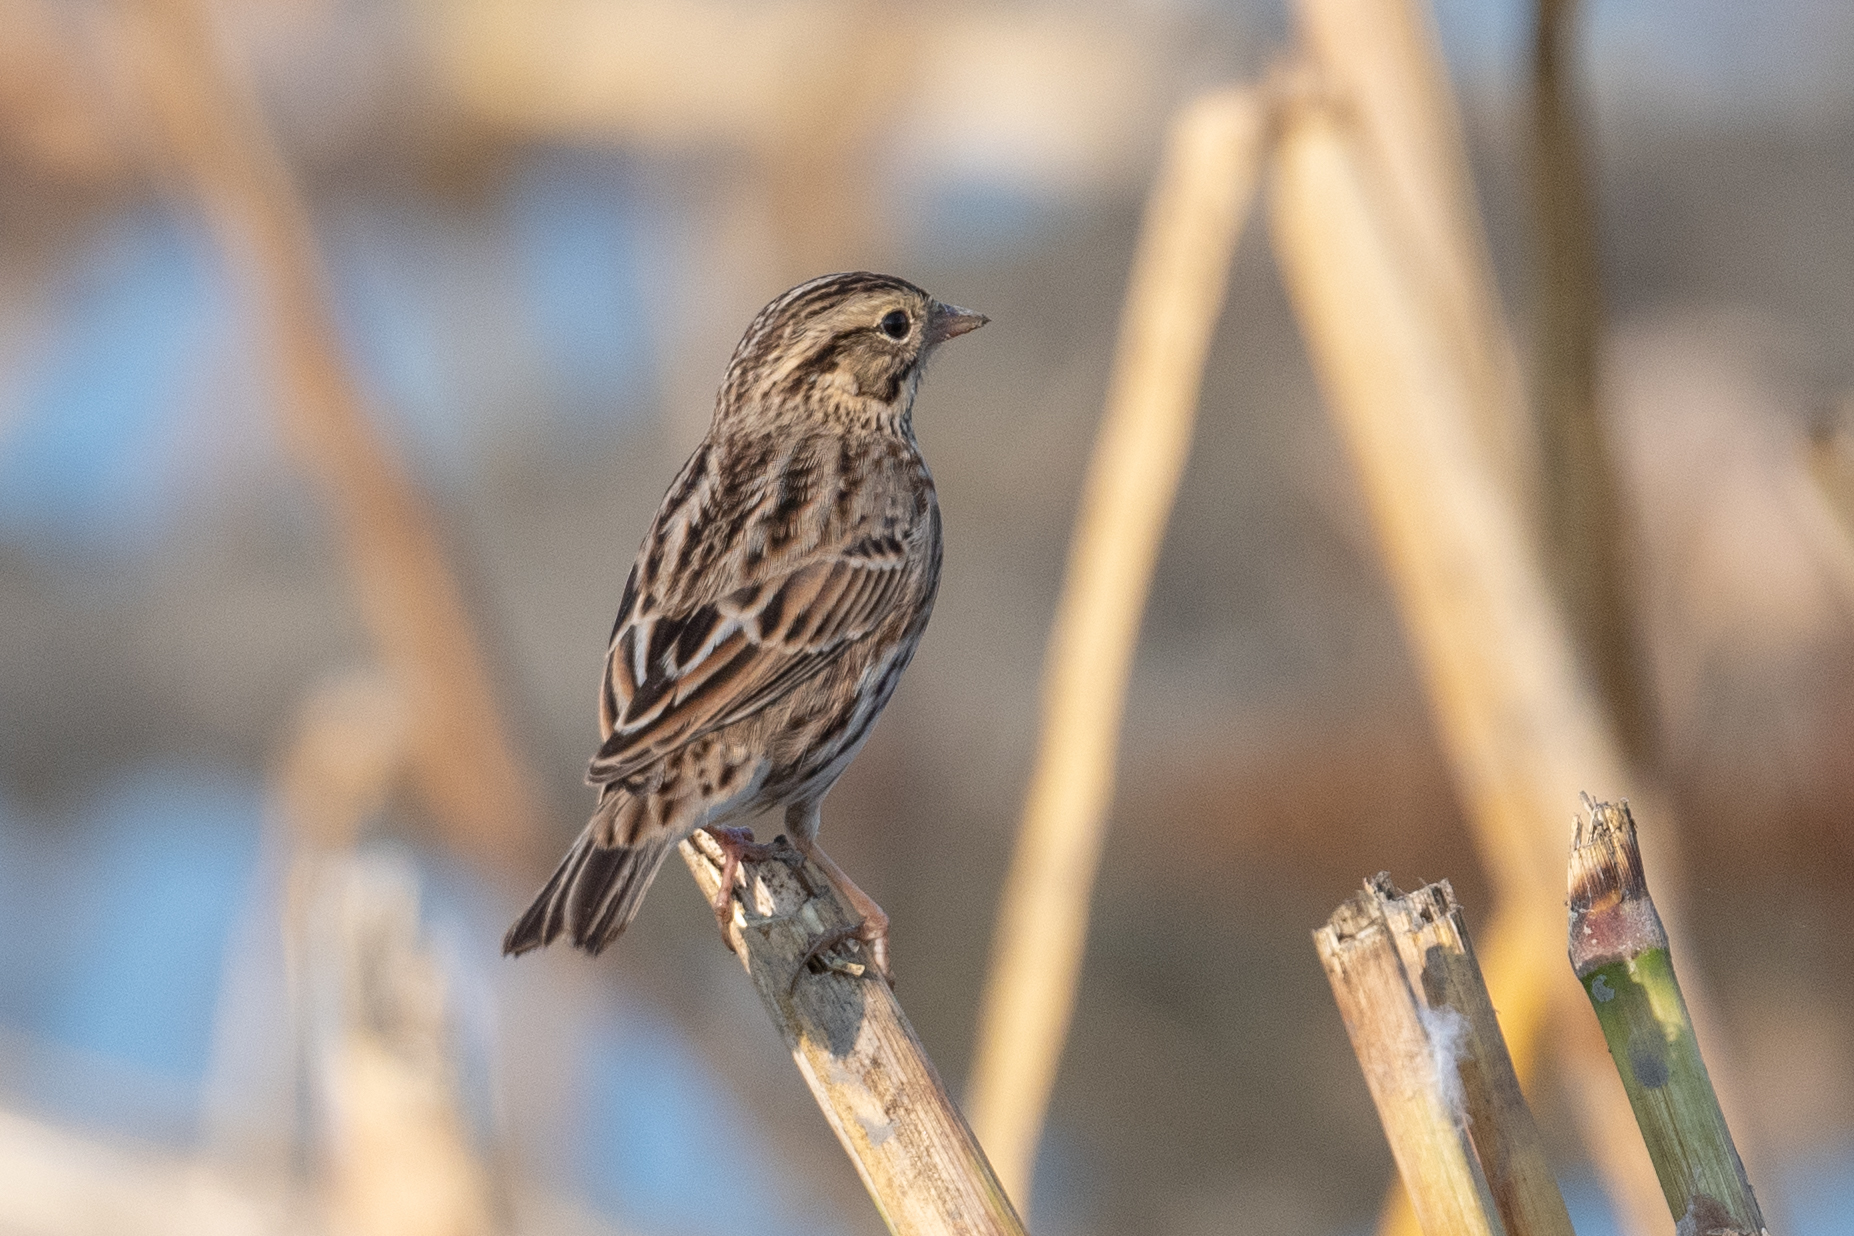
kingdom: Animalia
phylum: Chordata
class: Aves
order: Passeriformes
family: Passerellidae
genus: Passerculus
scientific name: Passerculus sandwichensis
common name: Savannah sparrow
